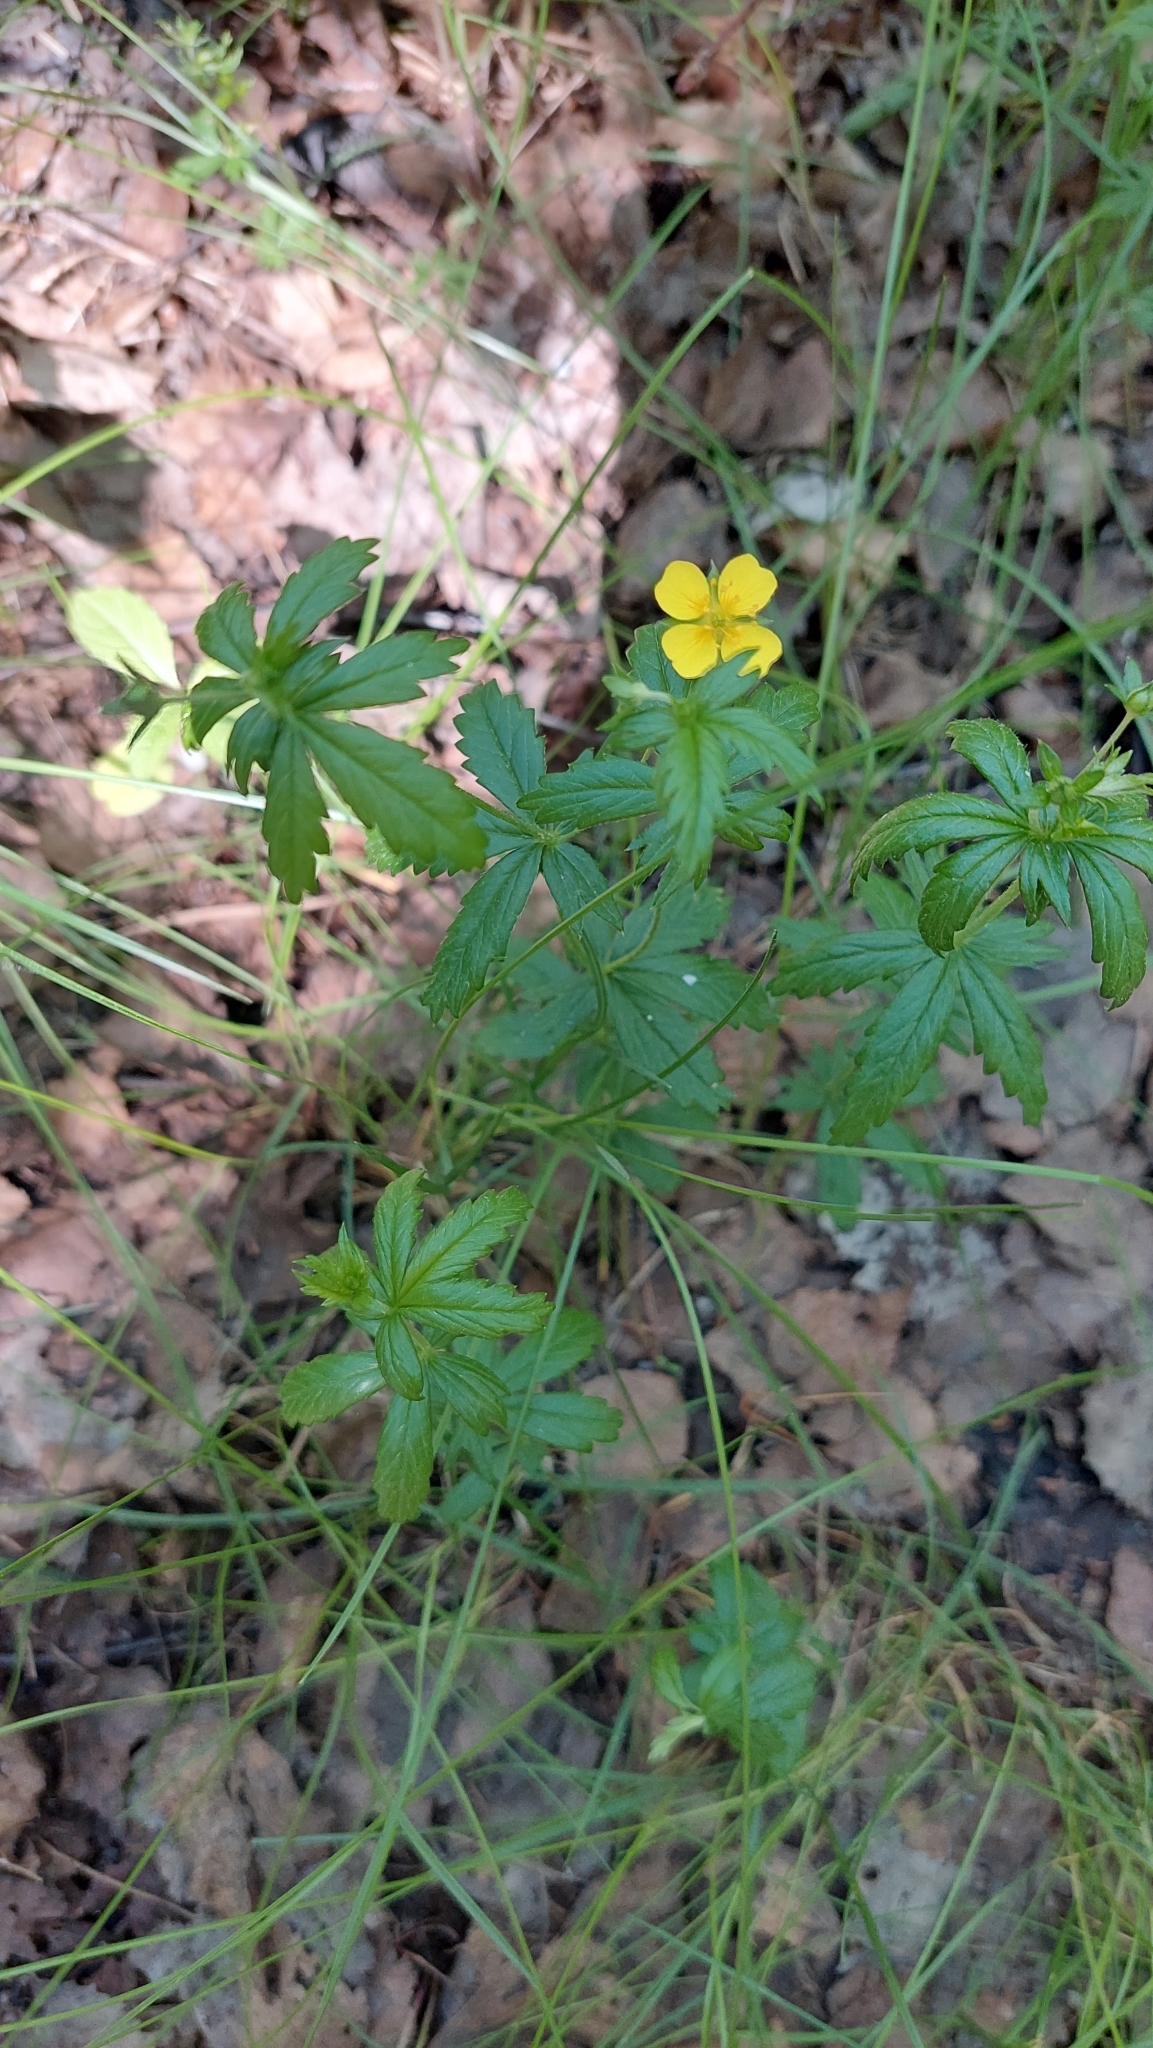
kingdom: Plantae
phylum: Tracheophyta
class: Magnoliopsida
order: Rosales
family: Rosaceae
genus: Potentilla
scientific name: Potentilla erecta
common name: Tormentil
